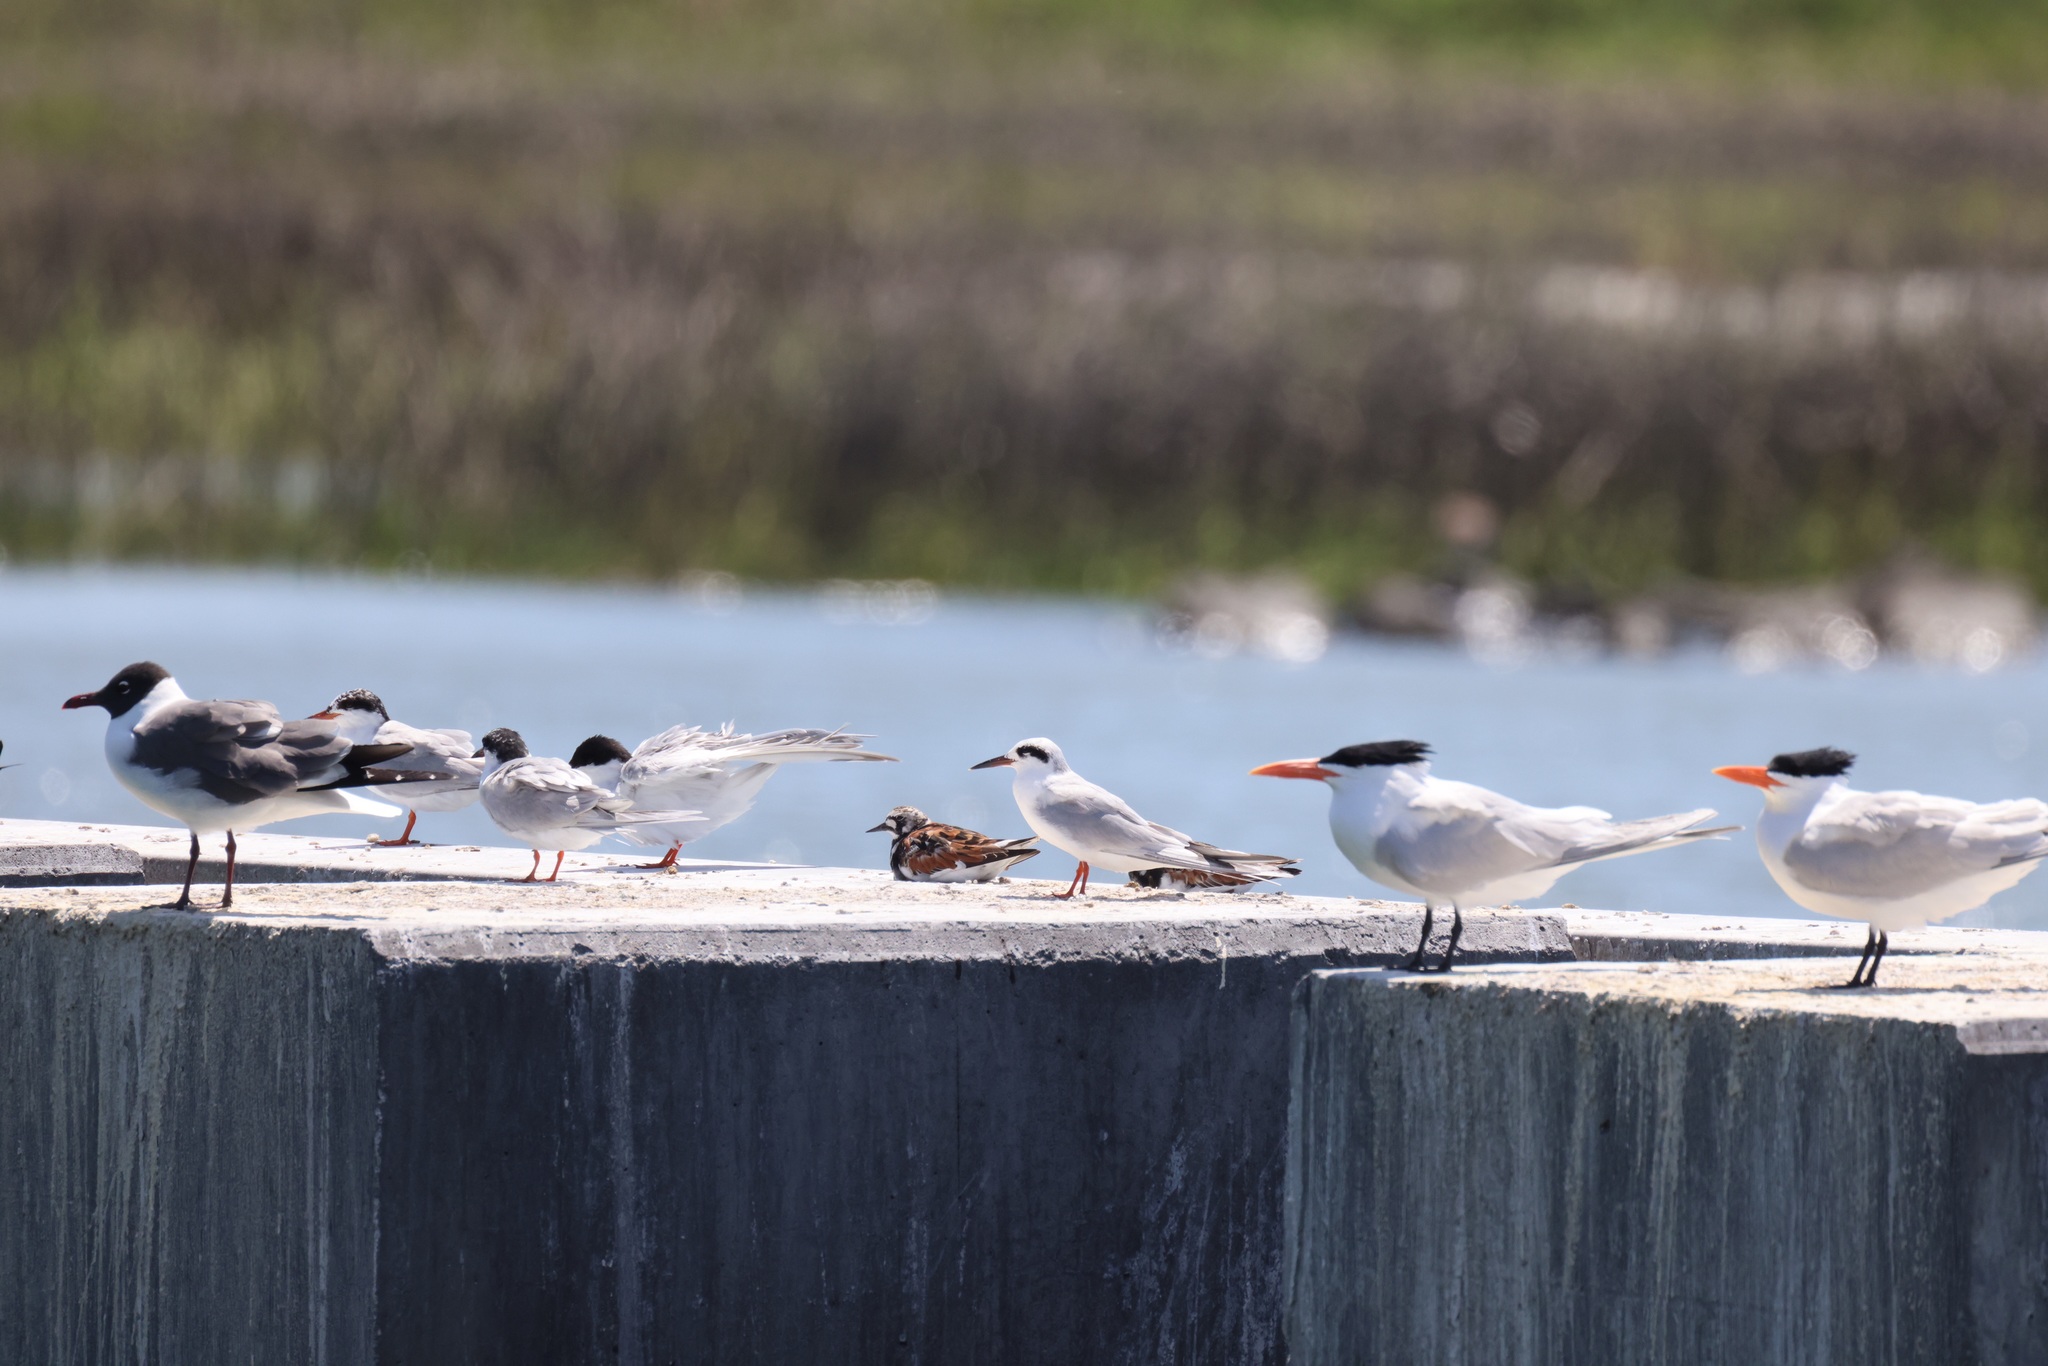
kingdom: Animalia
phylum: Chordata
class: Aves
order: Charadriiformes
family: Laridae
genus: Sterna
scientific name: Sterna forsteri
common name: Forster's tern
